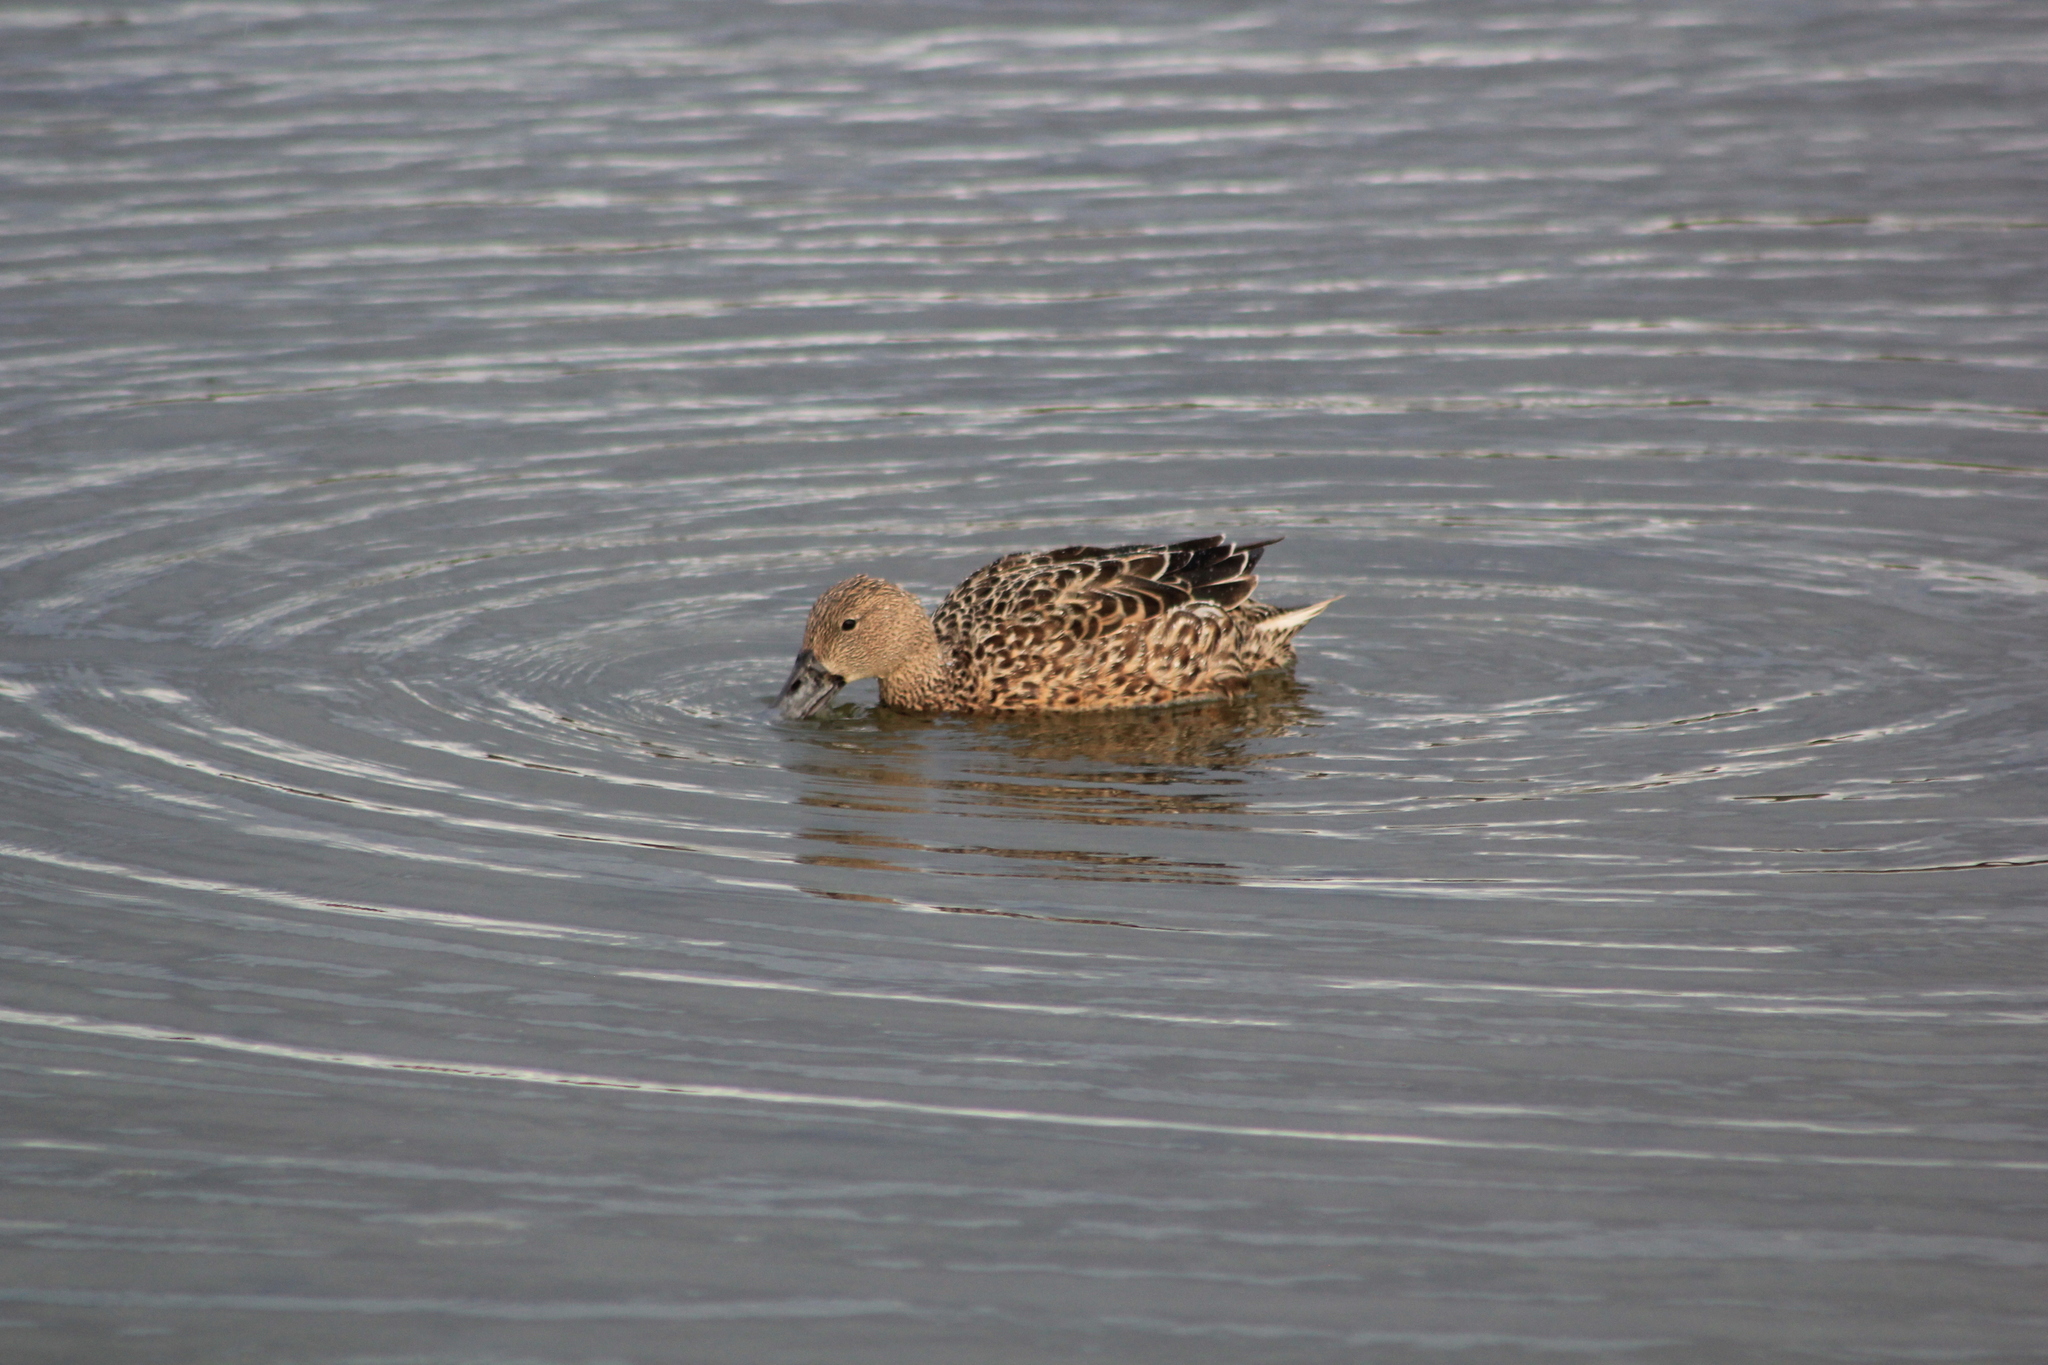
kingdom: Animalia
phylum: Chordata
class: Aves
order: Anseriformes
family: Anatidae
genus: Spatula
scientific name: Spatula platalea
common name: Red shoveler
